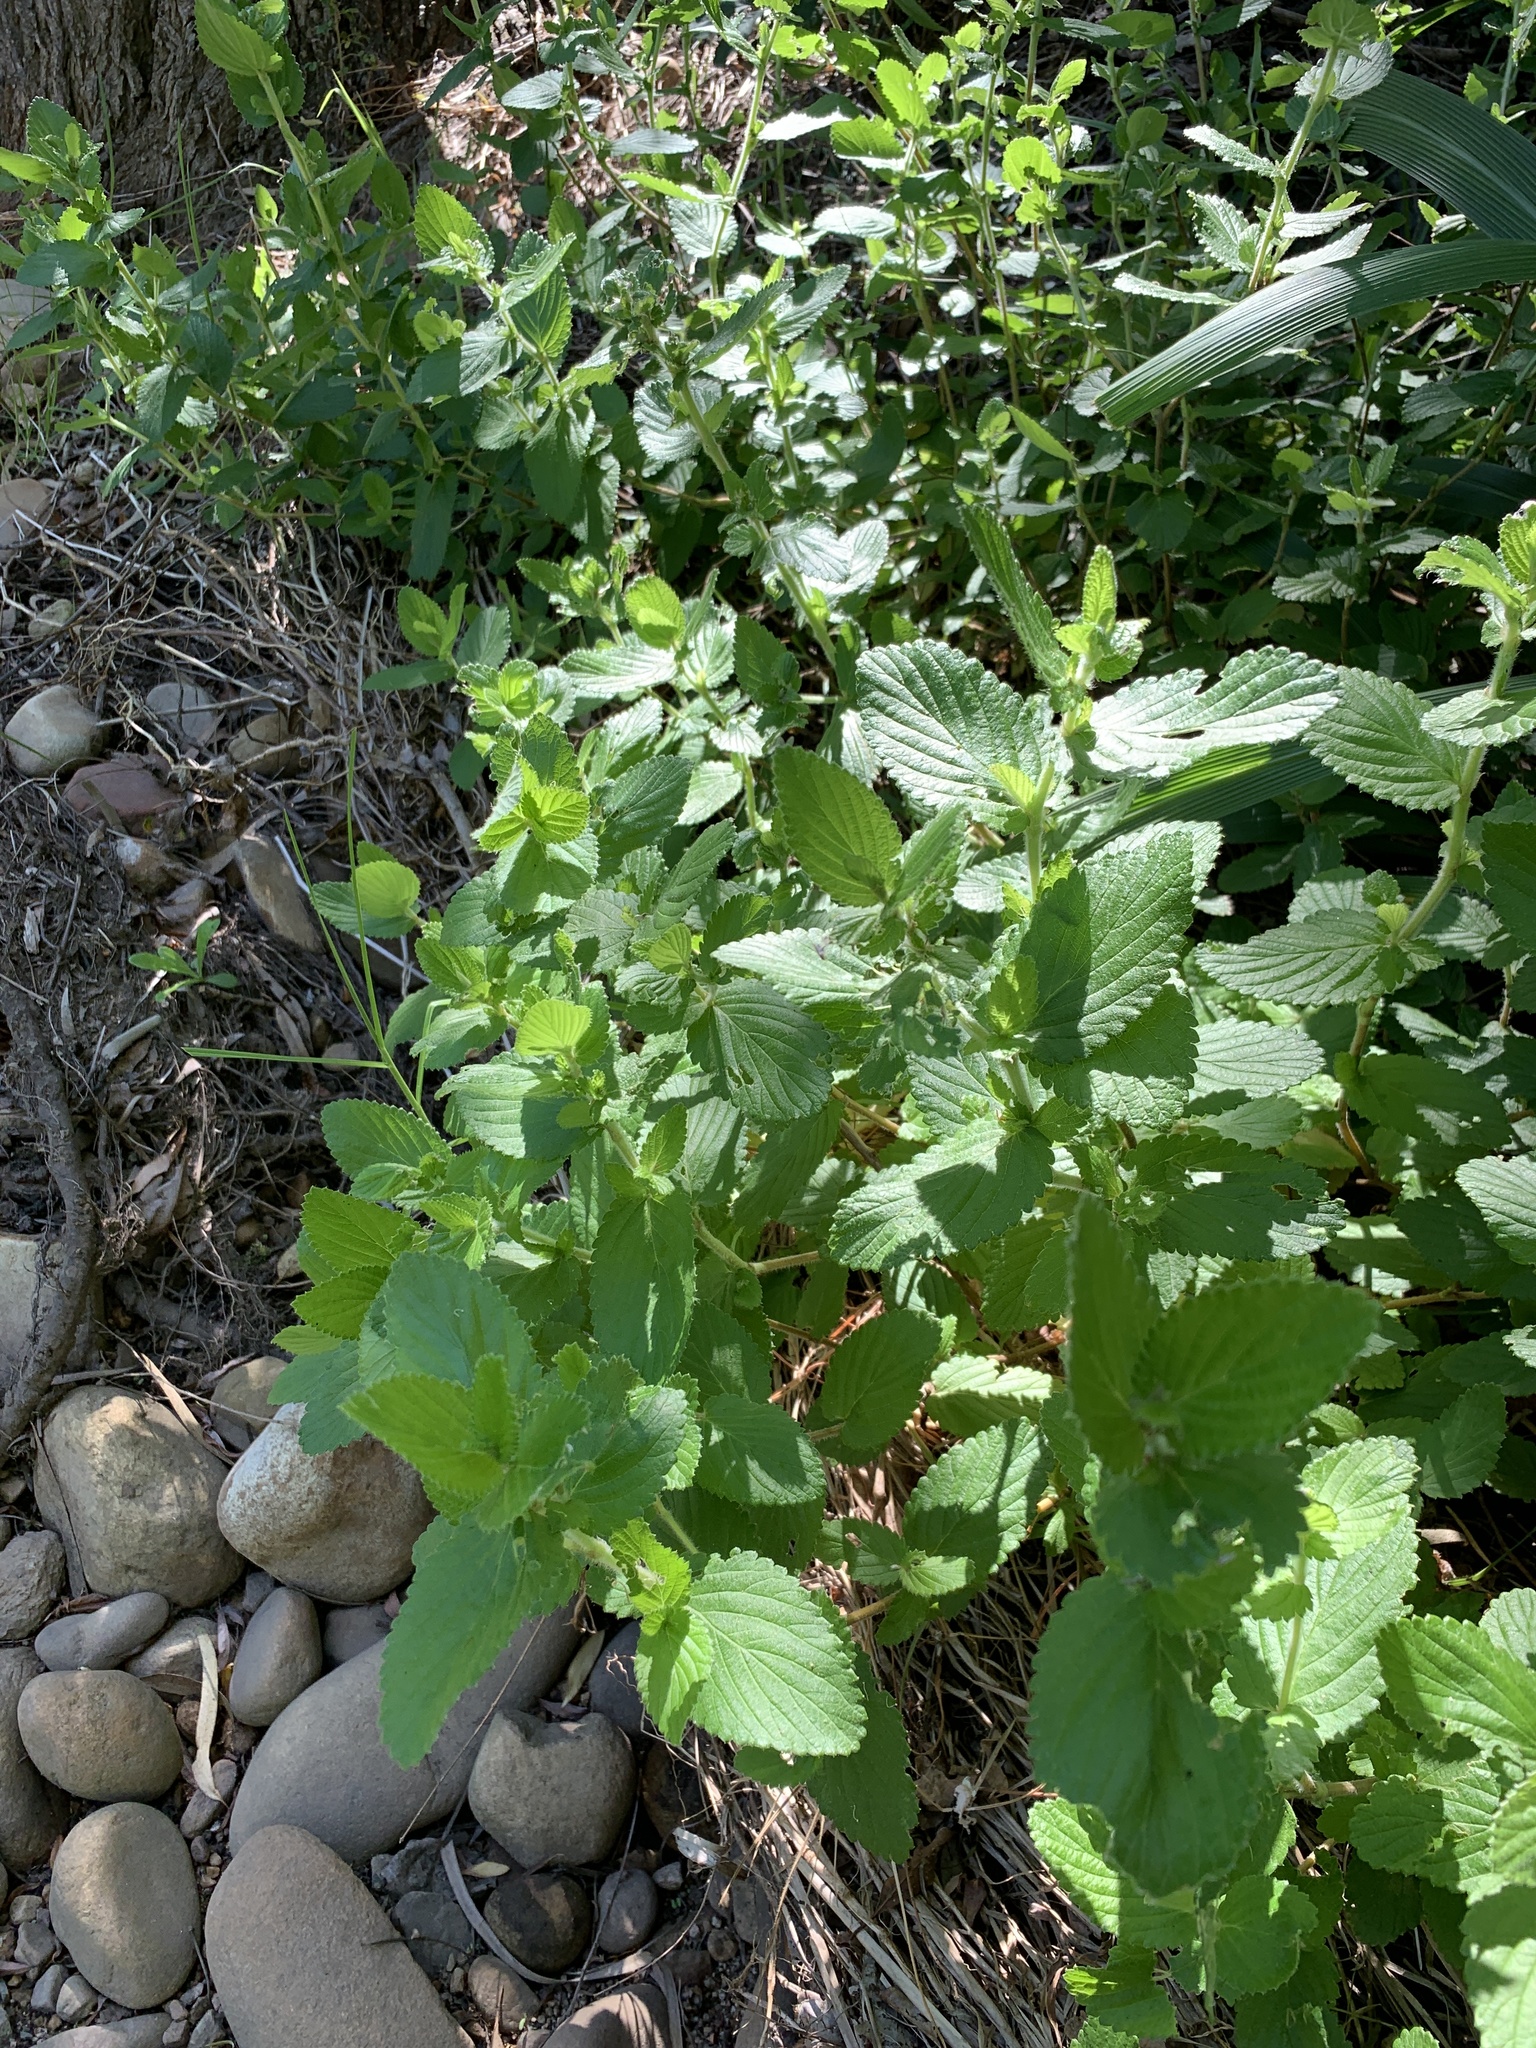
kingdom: Plantae
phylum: Tracheophyta
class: Magnoliopsida
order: Rosales
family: Rosaceae
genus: Cliffortia
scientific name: Cliffortia odorata
